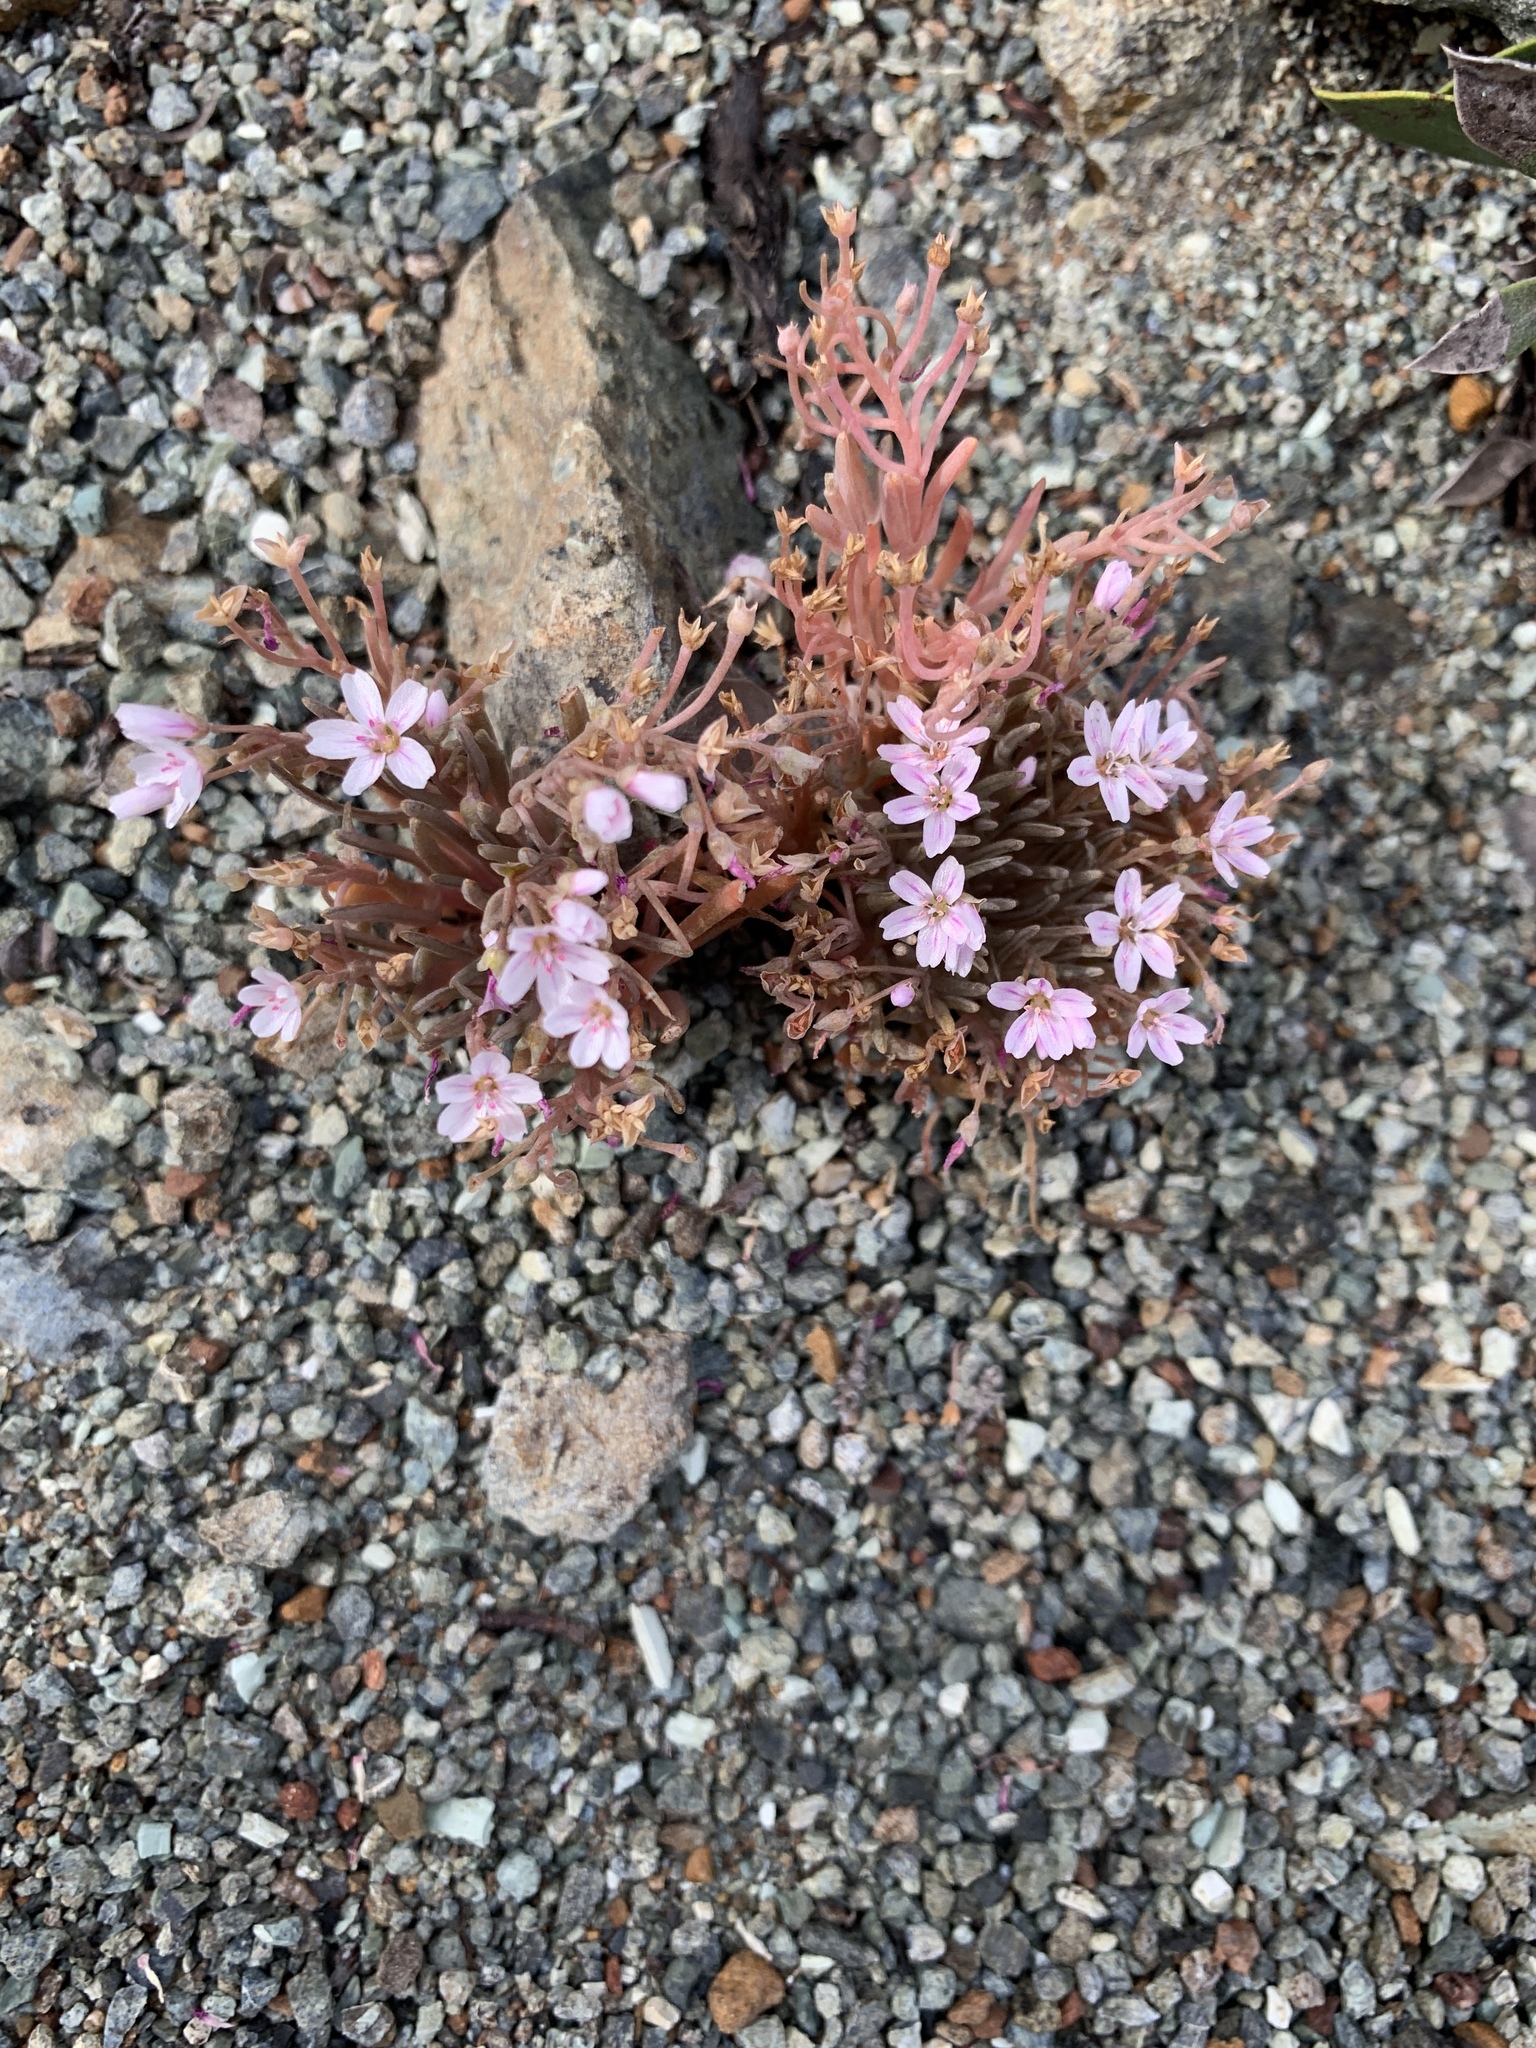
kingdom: Plantae
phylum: Tracheophyta
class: Magnoliopsida
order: Caryophyllales
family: Montiaceae
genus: Claytonia
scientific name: Claytonia gypsophiloides
